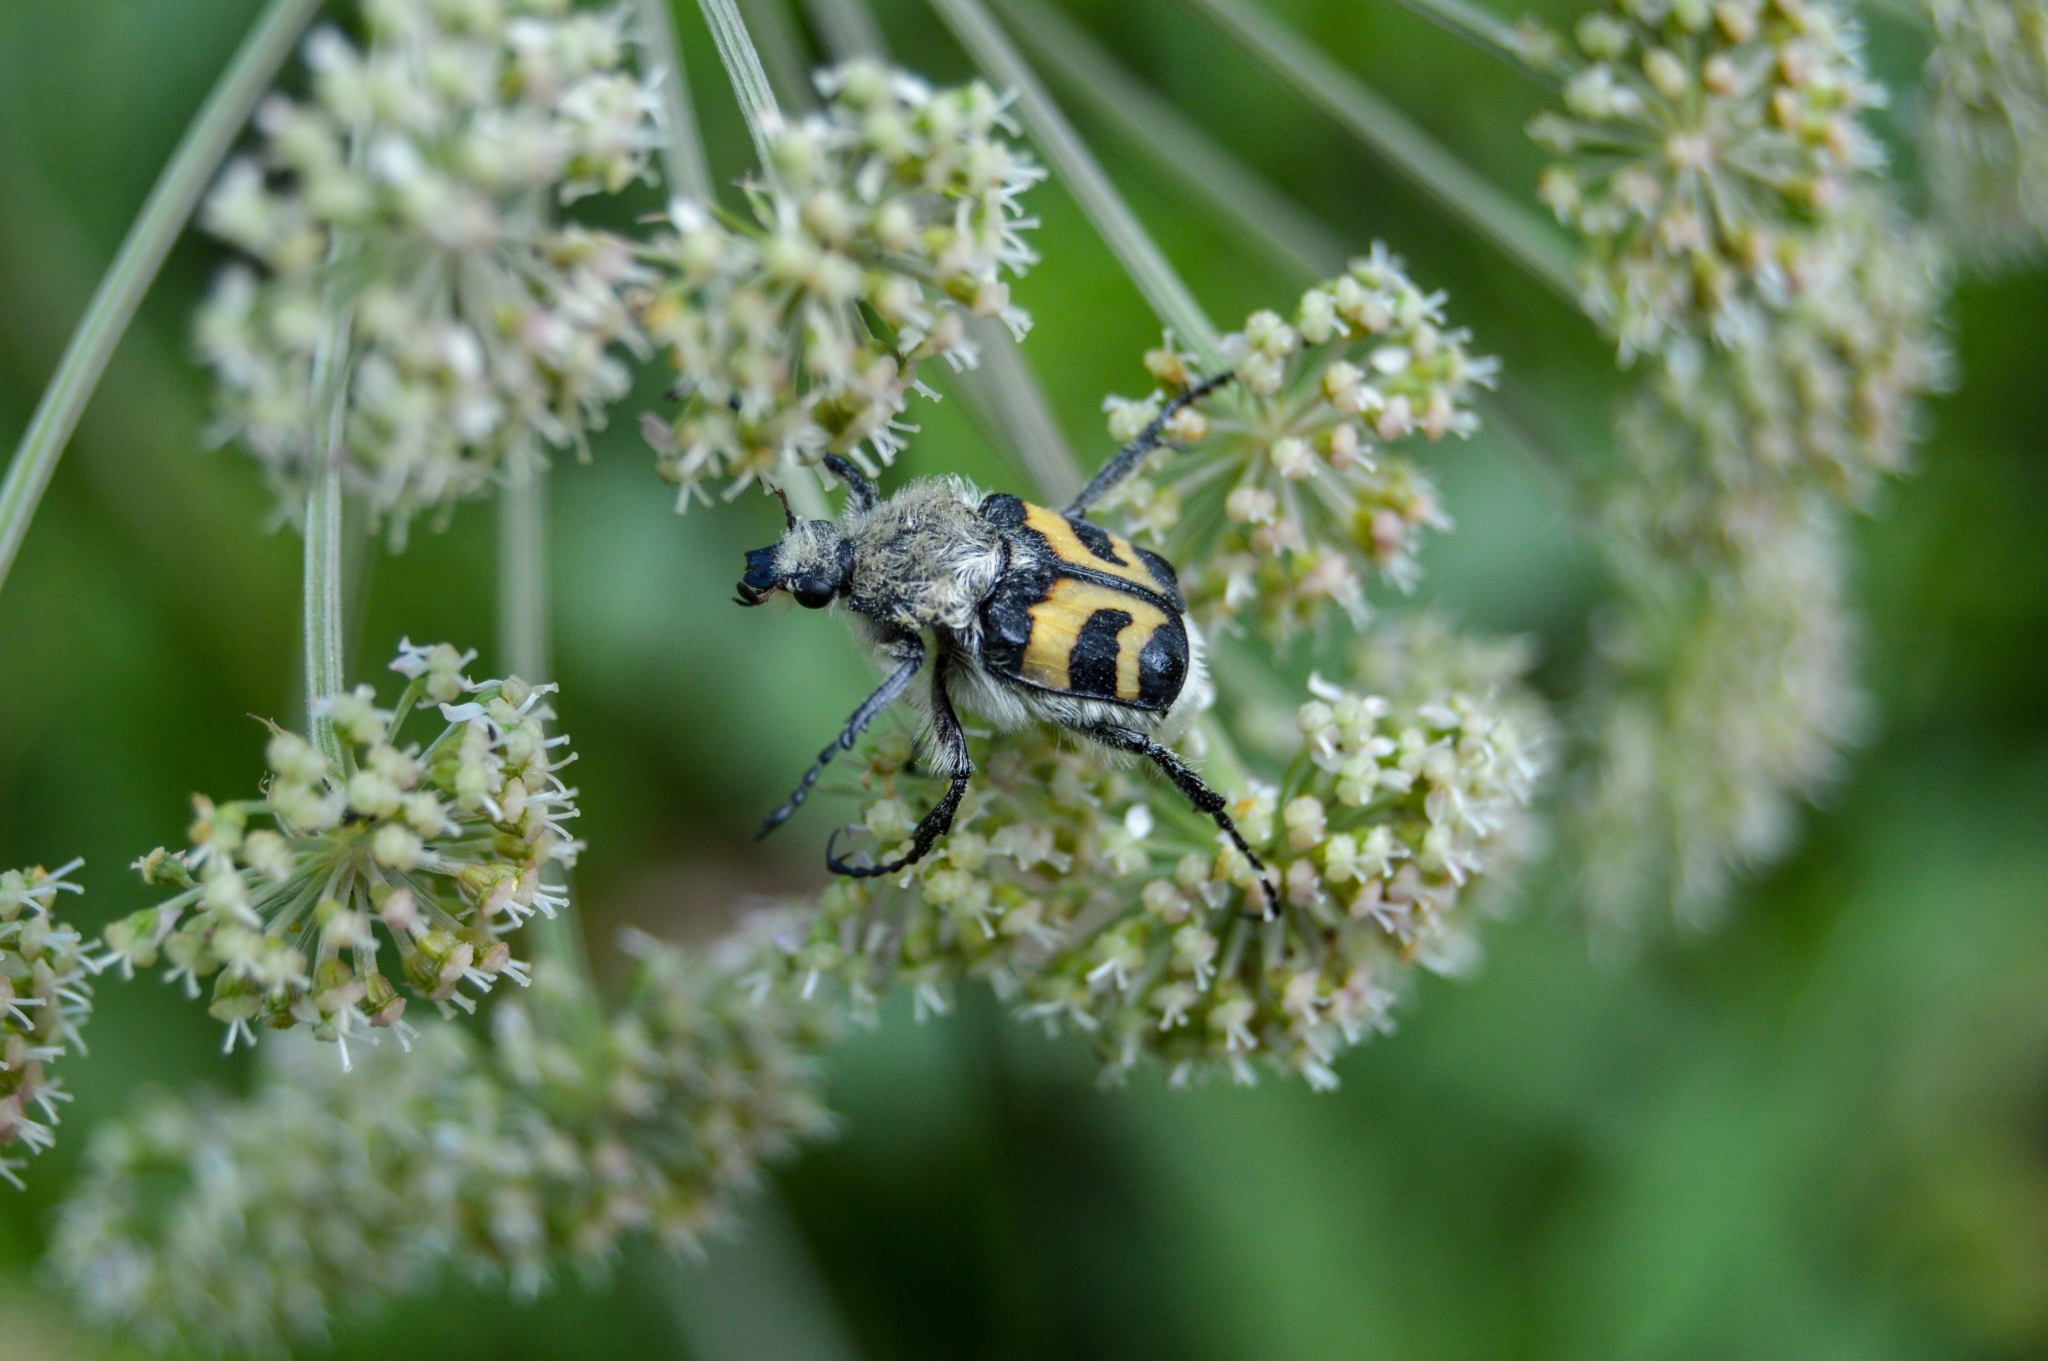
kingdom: Animalia
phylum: Arthropoda
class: Insecta
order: Coleoptera
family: Scarabaeidae
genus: Trichius
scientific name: Trichius fasciatus
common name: Bee beetle
